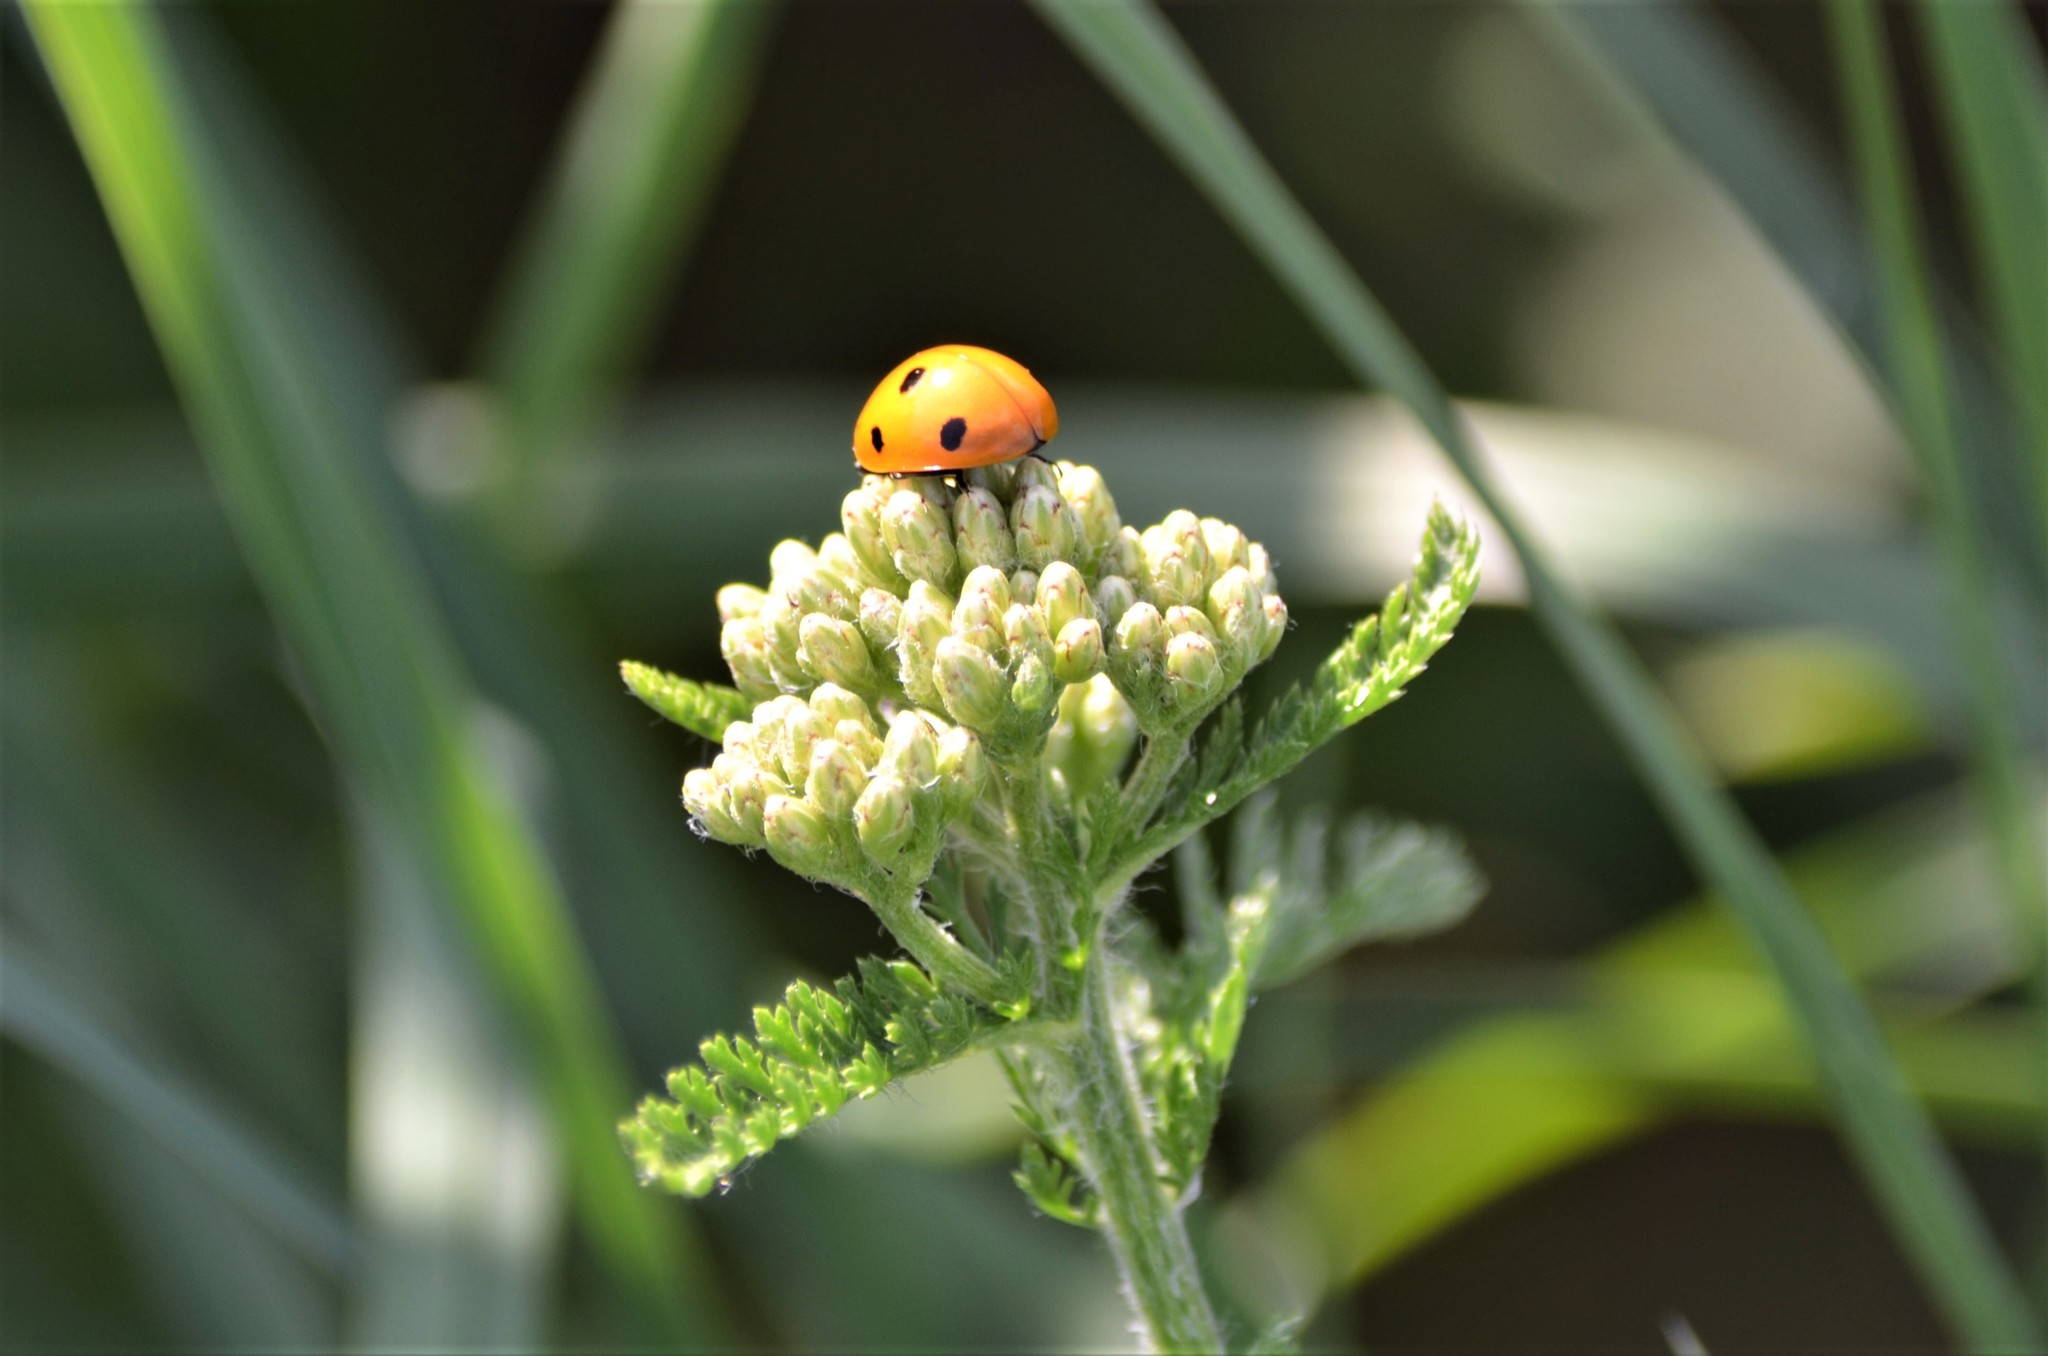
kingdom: Animalia
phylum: Arthropoda
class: Insecta
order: Coleoptera
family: Coccinellidae
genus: Coccinella
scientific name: Coccinella septempunctata
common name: Sevenspotted lady beetle
